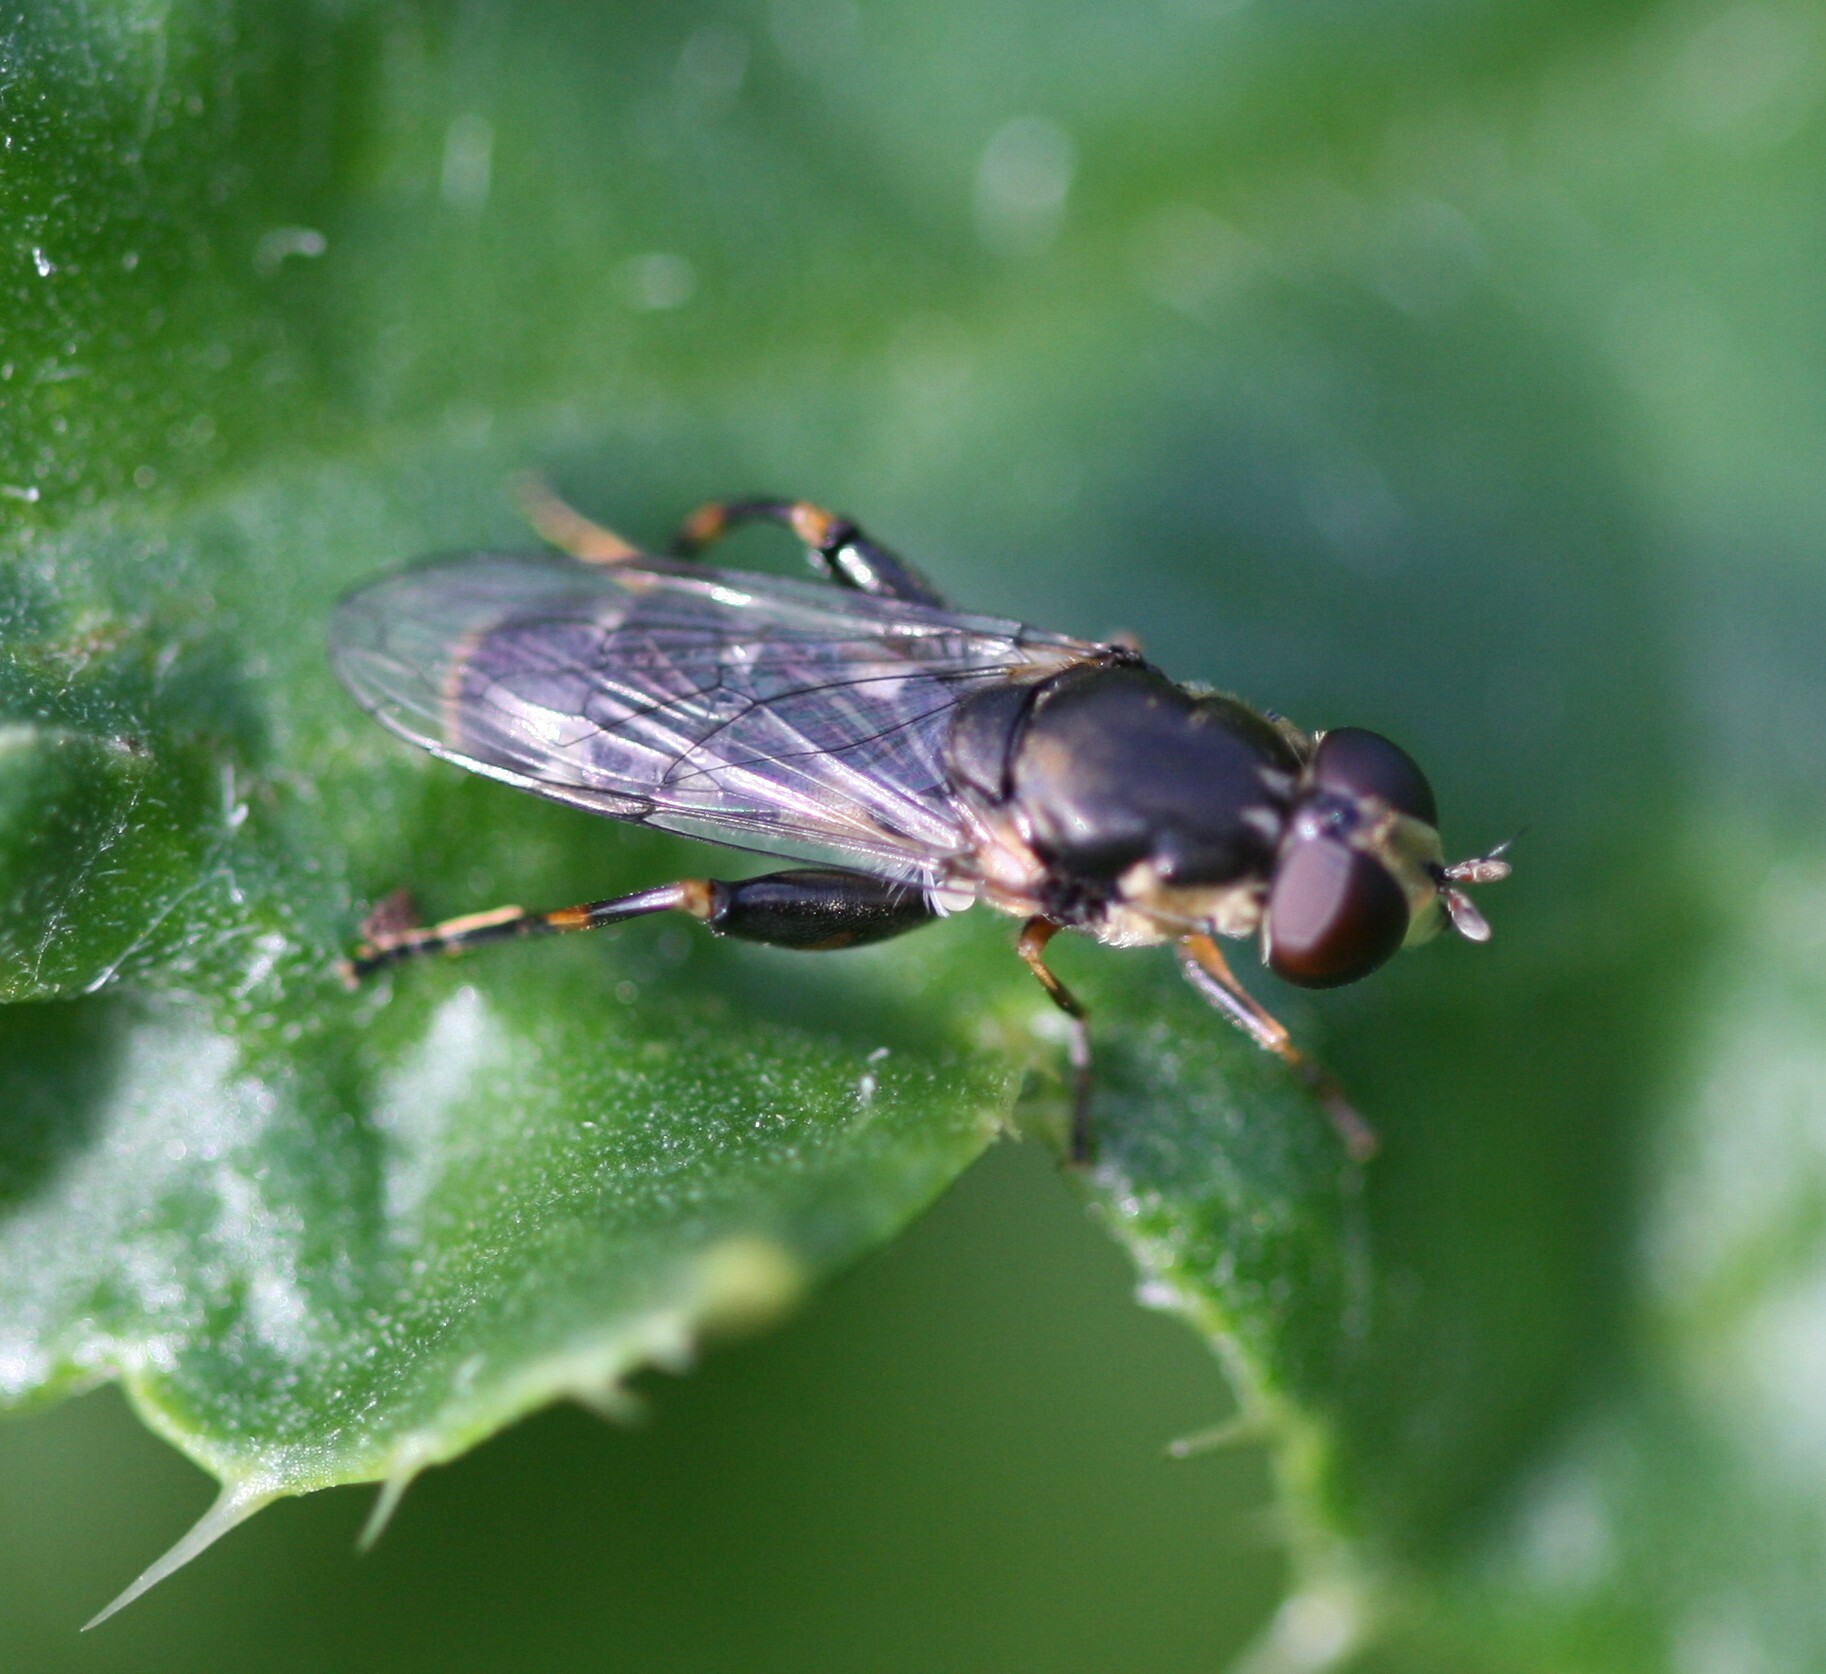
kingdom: Animalia
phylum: Arthropoda
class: Insecta
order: Diptera
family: Syrphidae
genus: Syritta
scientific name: Syritta pipiens
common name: Hover fly
